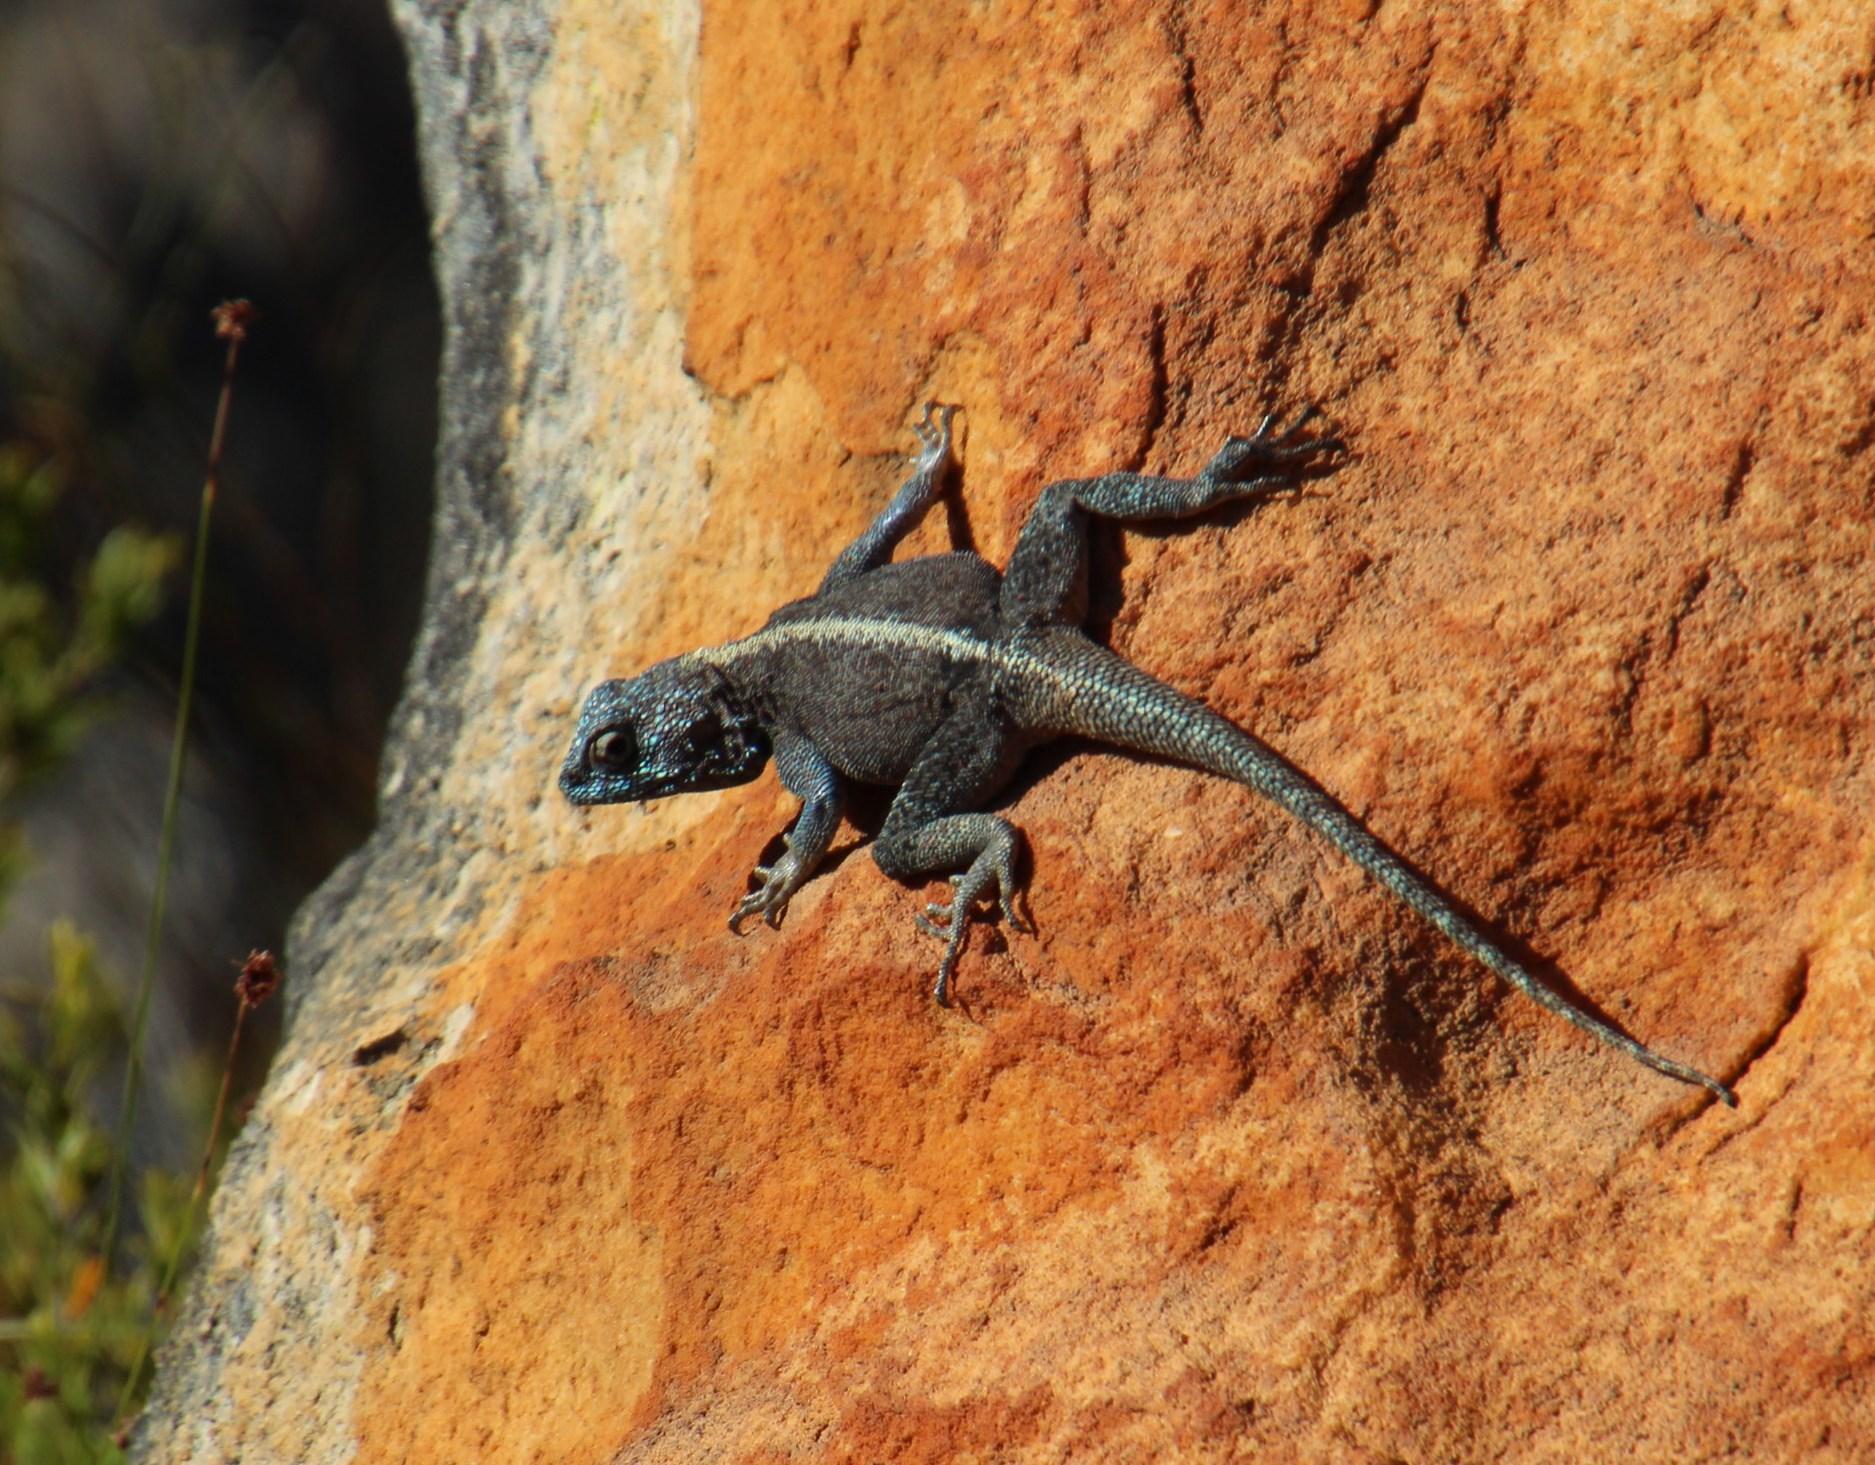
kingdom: Animalia
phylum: Chordata
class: Squamata
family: Agamidae
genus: Agama
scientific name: Agama atra
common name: Southern african rock agama
